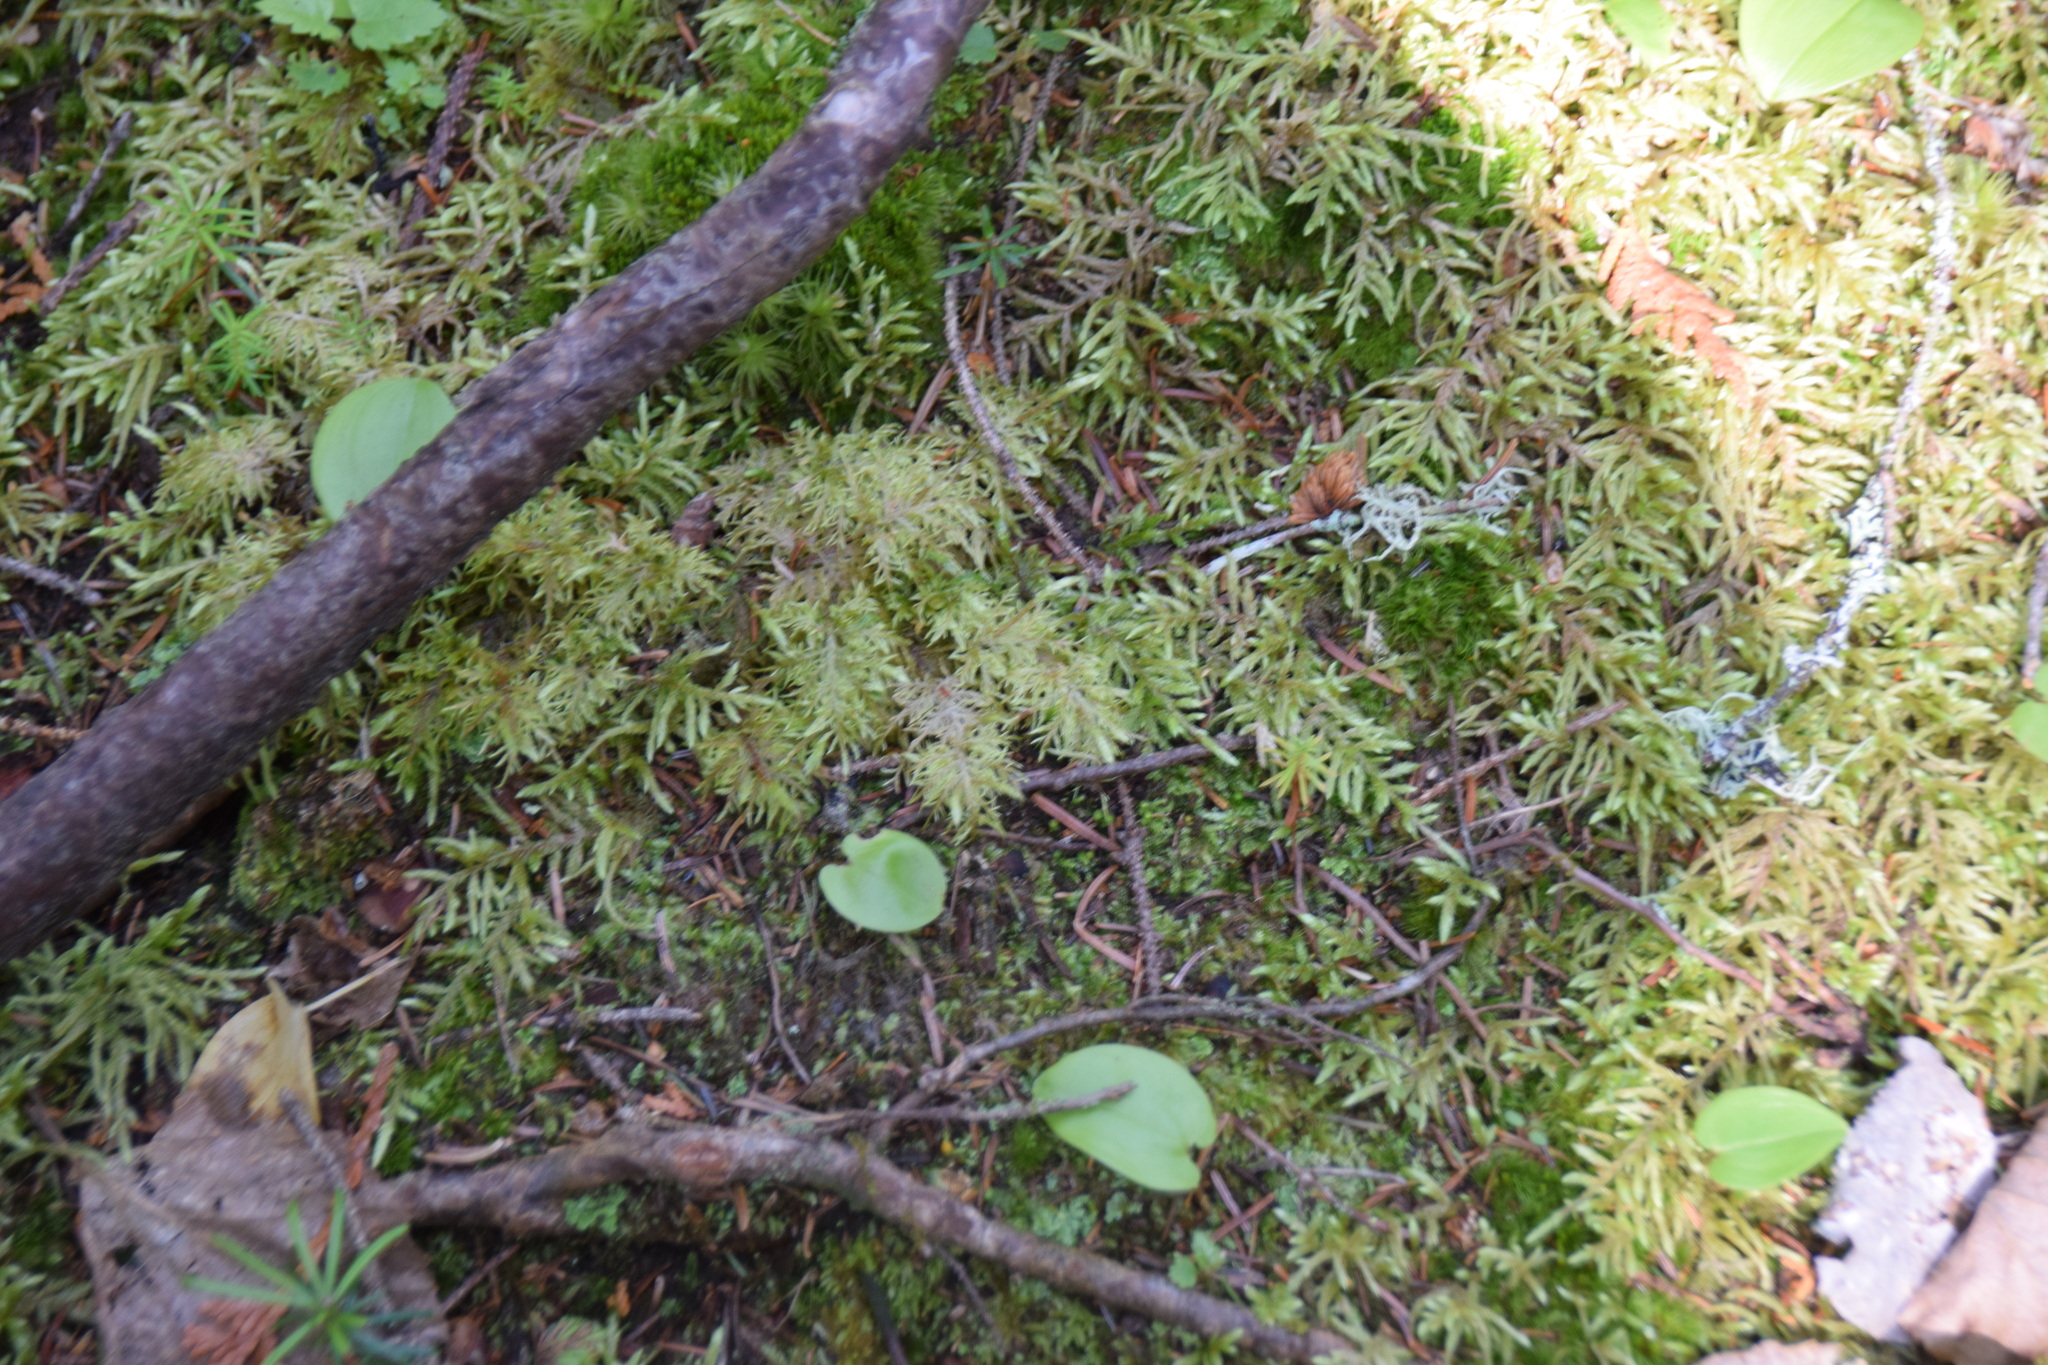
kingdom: Plantae
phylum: Bryophyta
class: Bryopsida
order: Hypnales
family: Hylocomiaceae
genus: Hylocomium
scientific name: Hylocomium splendens
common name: Stairstep moss
